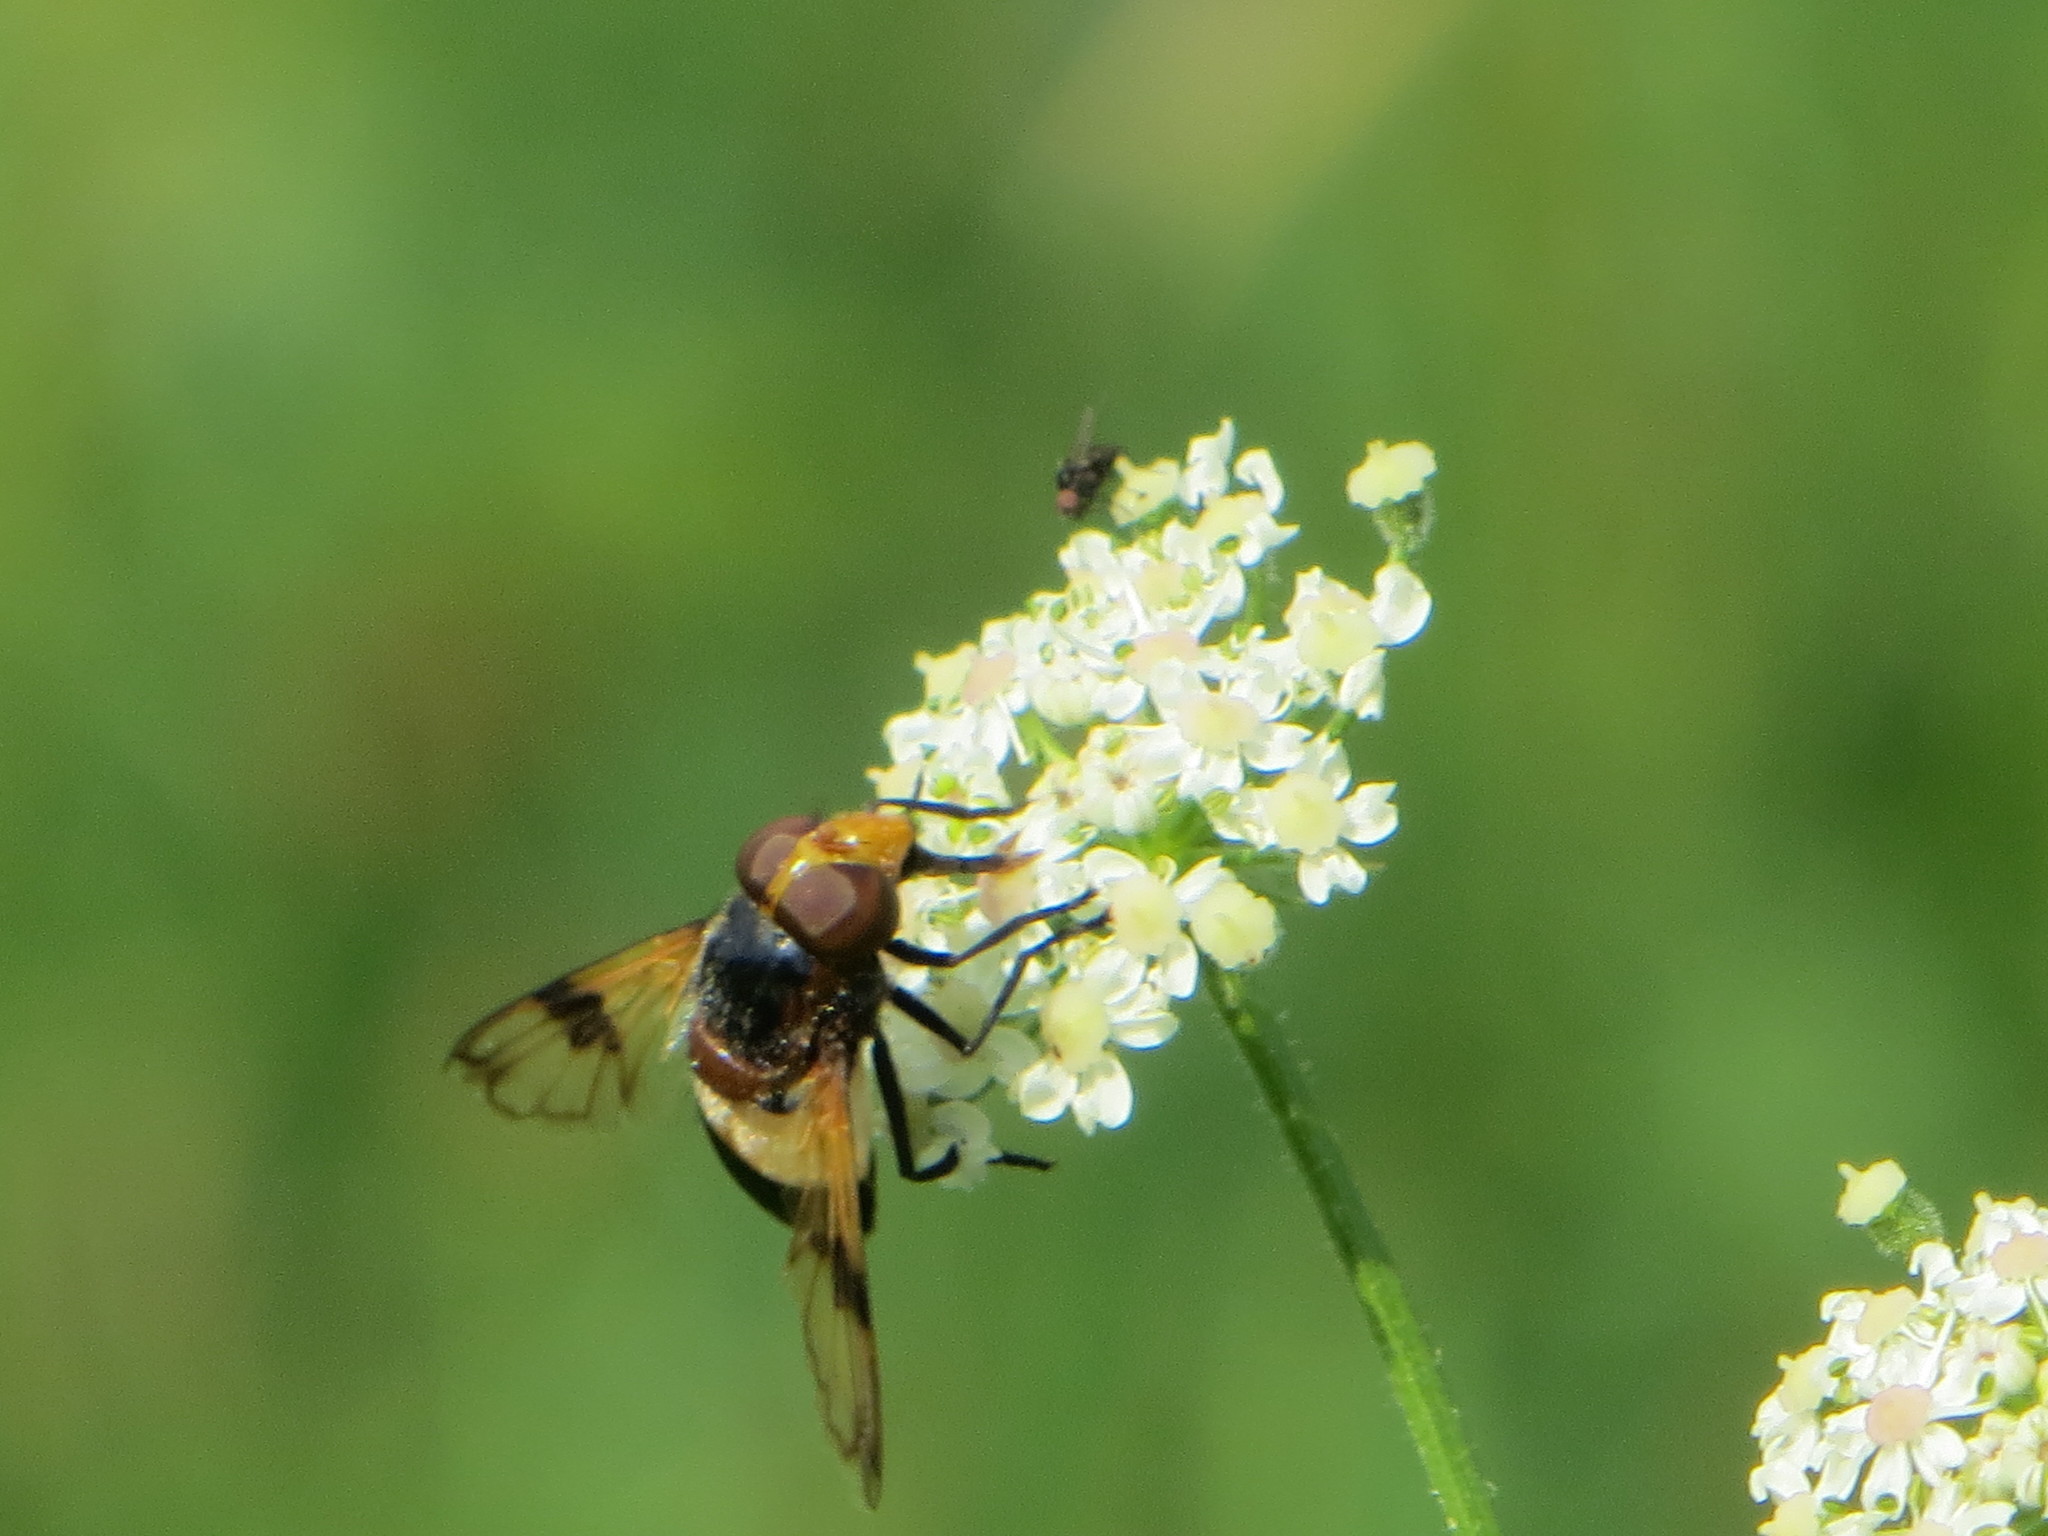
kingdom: Animalia
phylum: Arthropoda
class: Insecta
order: Diptera
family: Syrphidae
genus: Volucella
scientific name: Volucella pellucens
